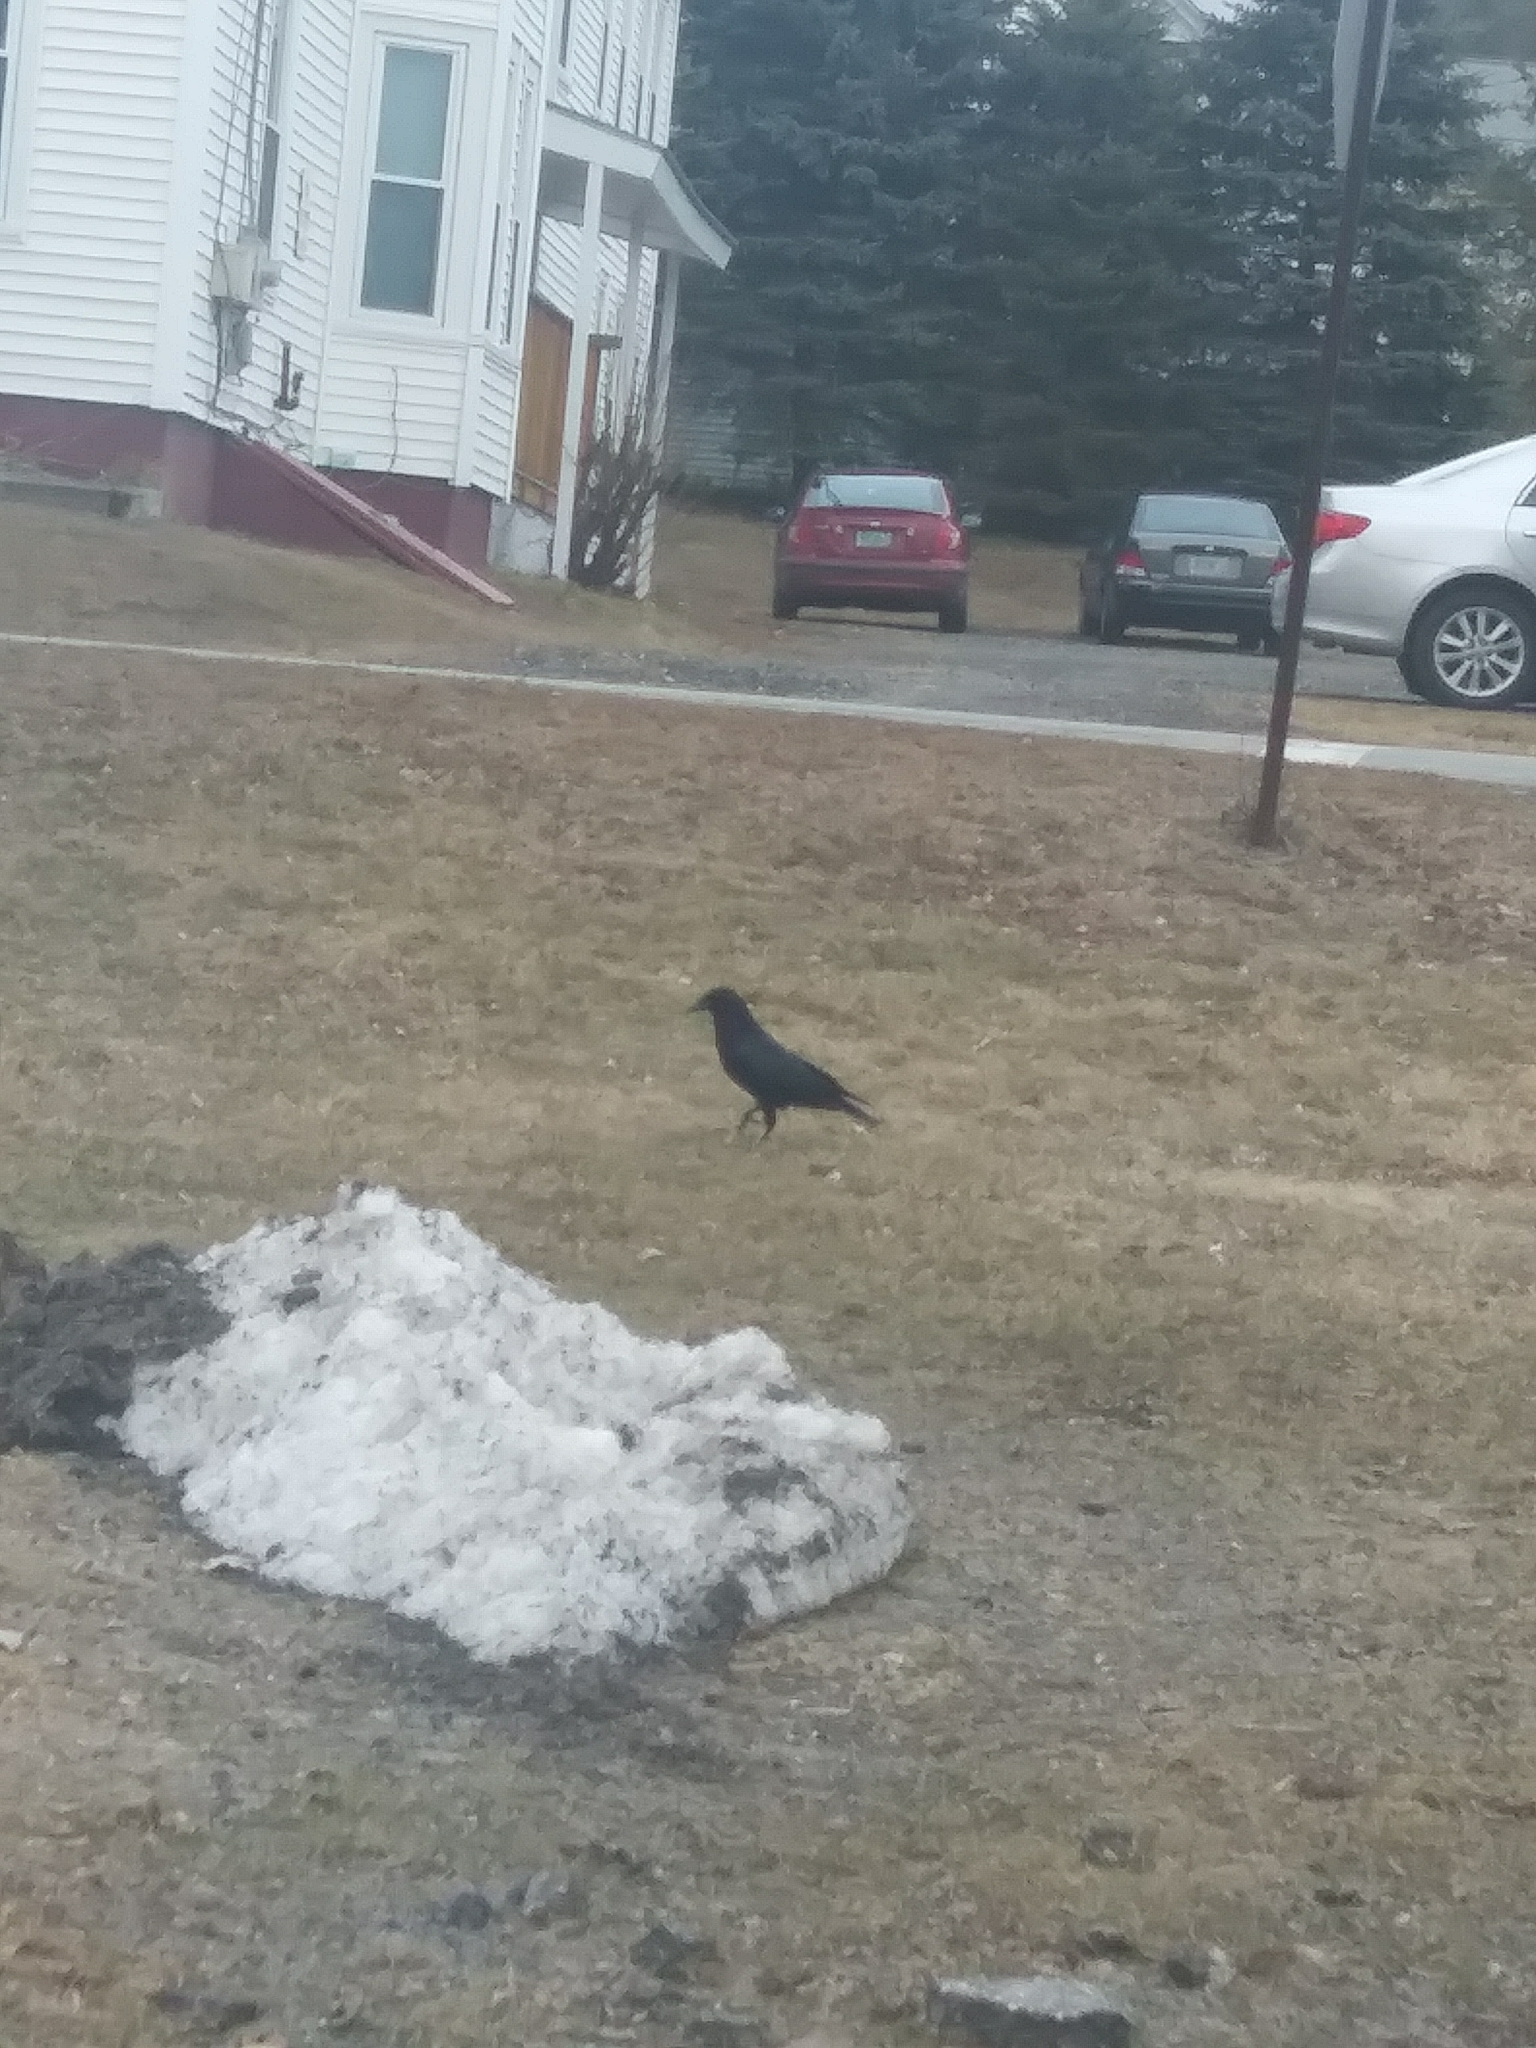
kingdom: Animalia
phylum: Chordata
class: Aves
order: Passeriformes
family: Corvidae
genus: Corvus
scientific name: Corvus brachyrhynchos
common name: American crow
